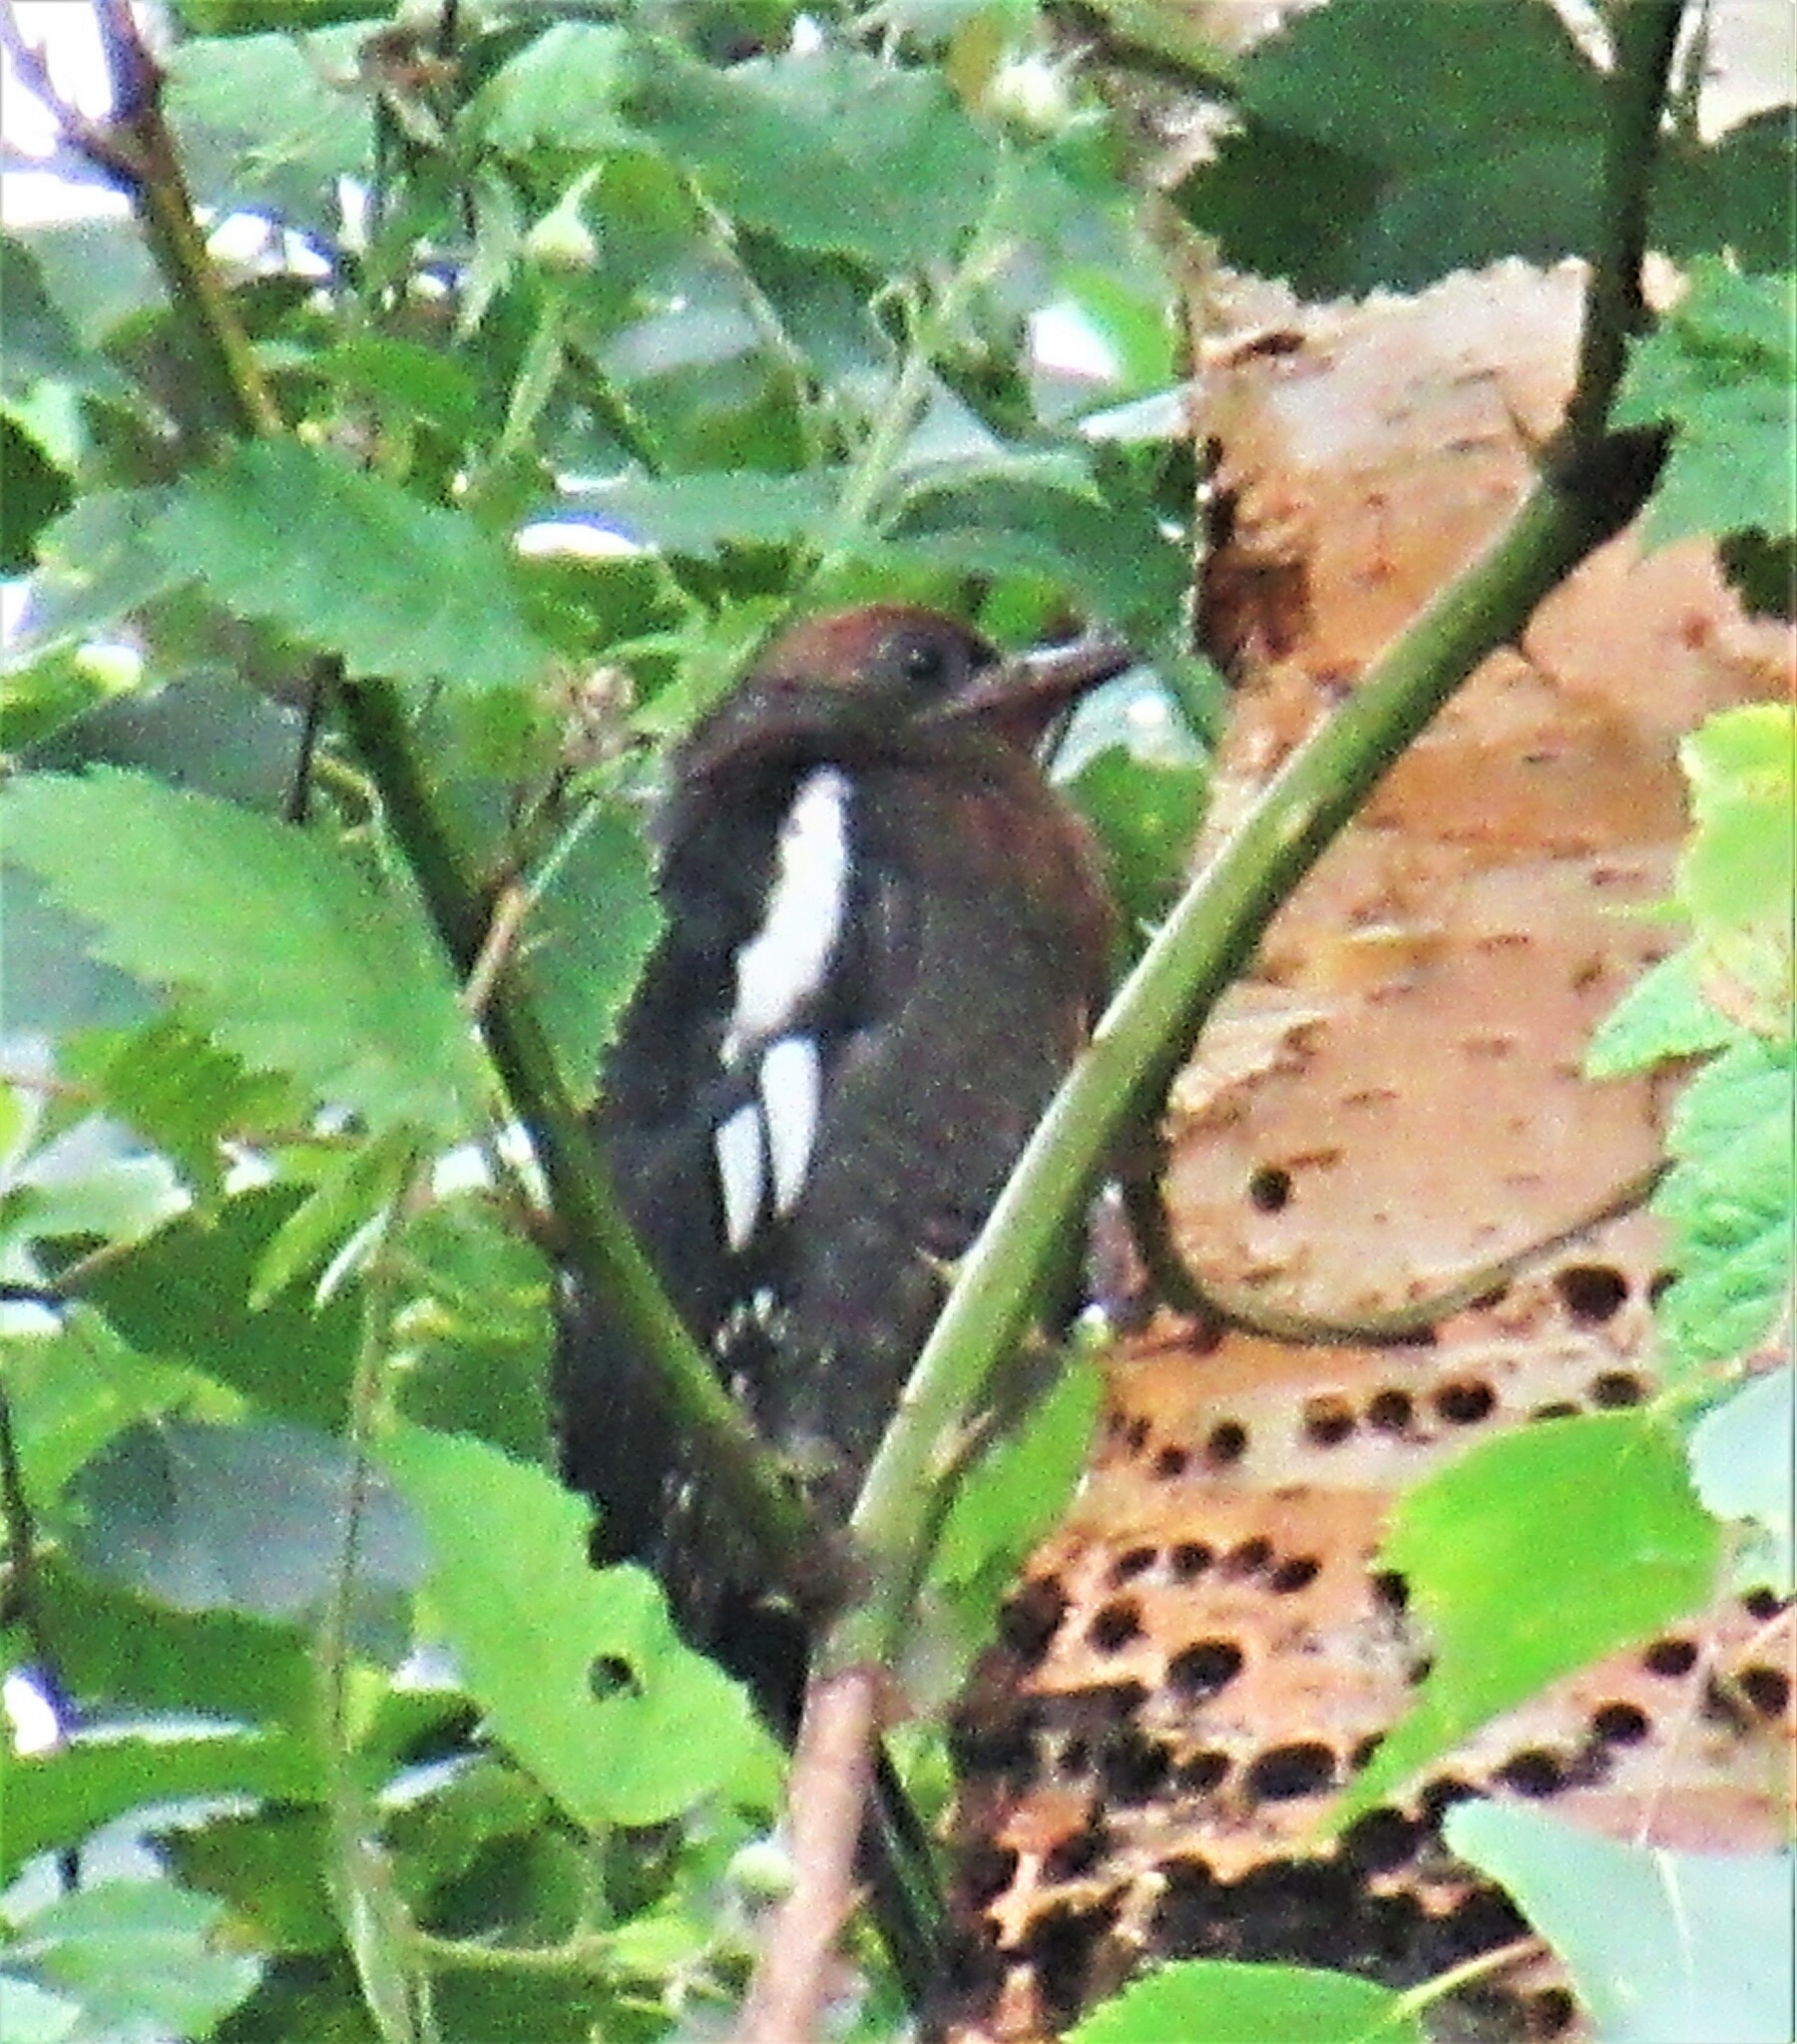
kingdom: Animalia
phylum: Chordata
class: Aves
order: Piciformes
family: Picidae
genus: Sphyrapicus
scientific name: Sphyrapicus ruber
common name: Red-breasted sapsucker
